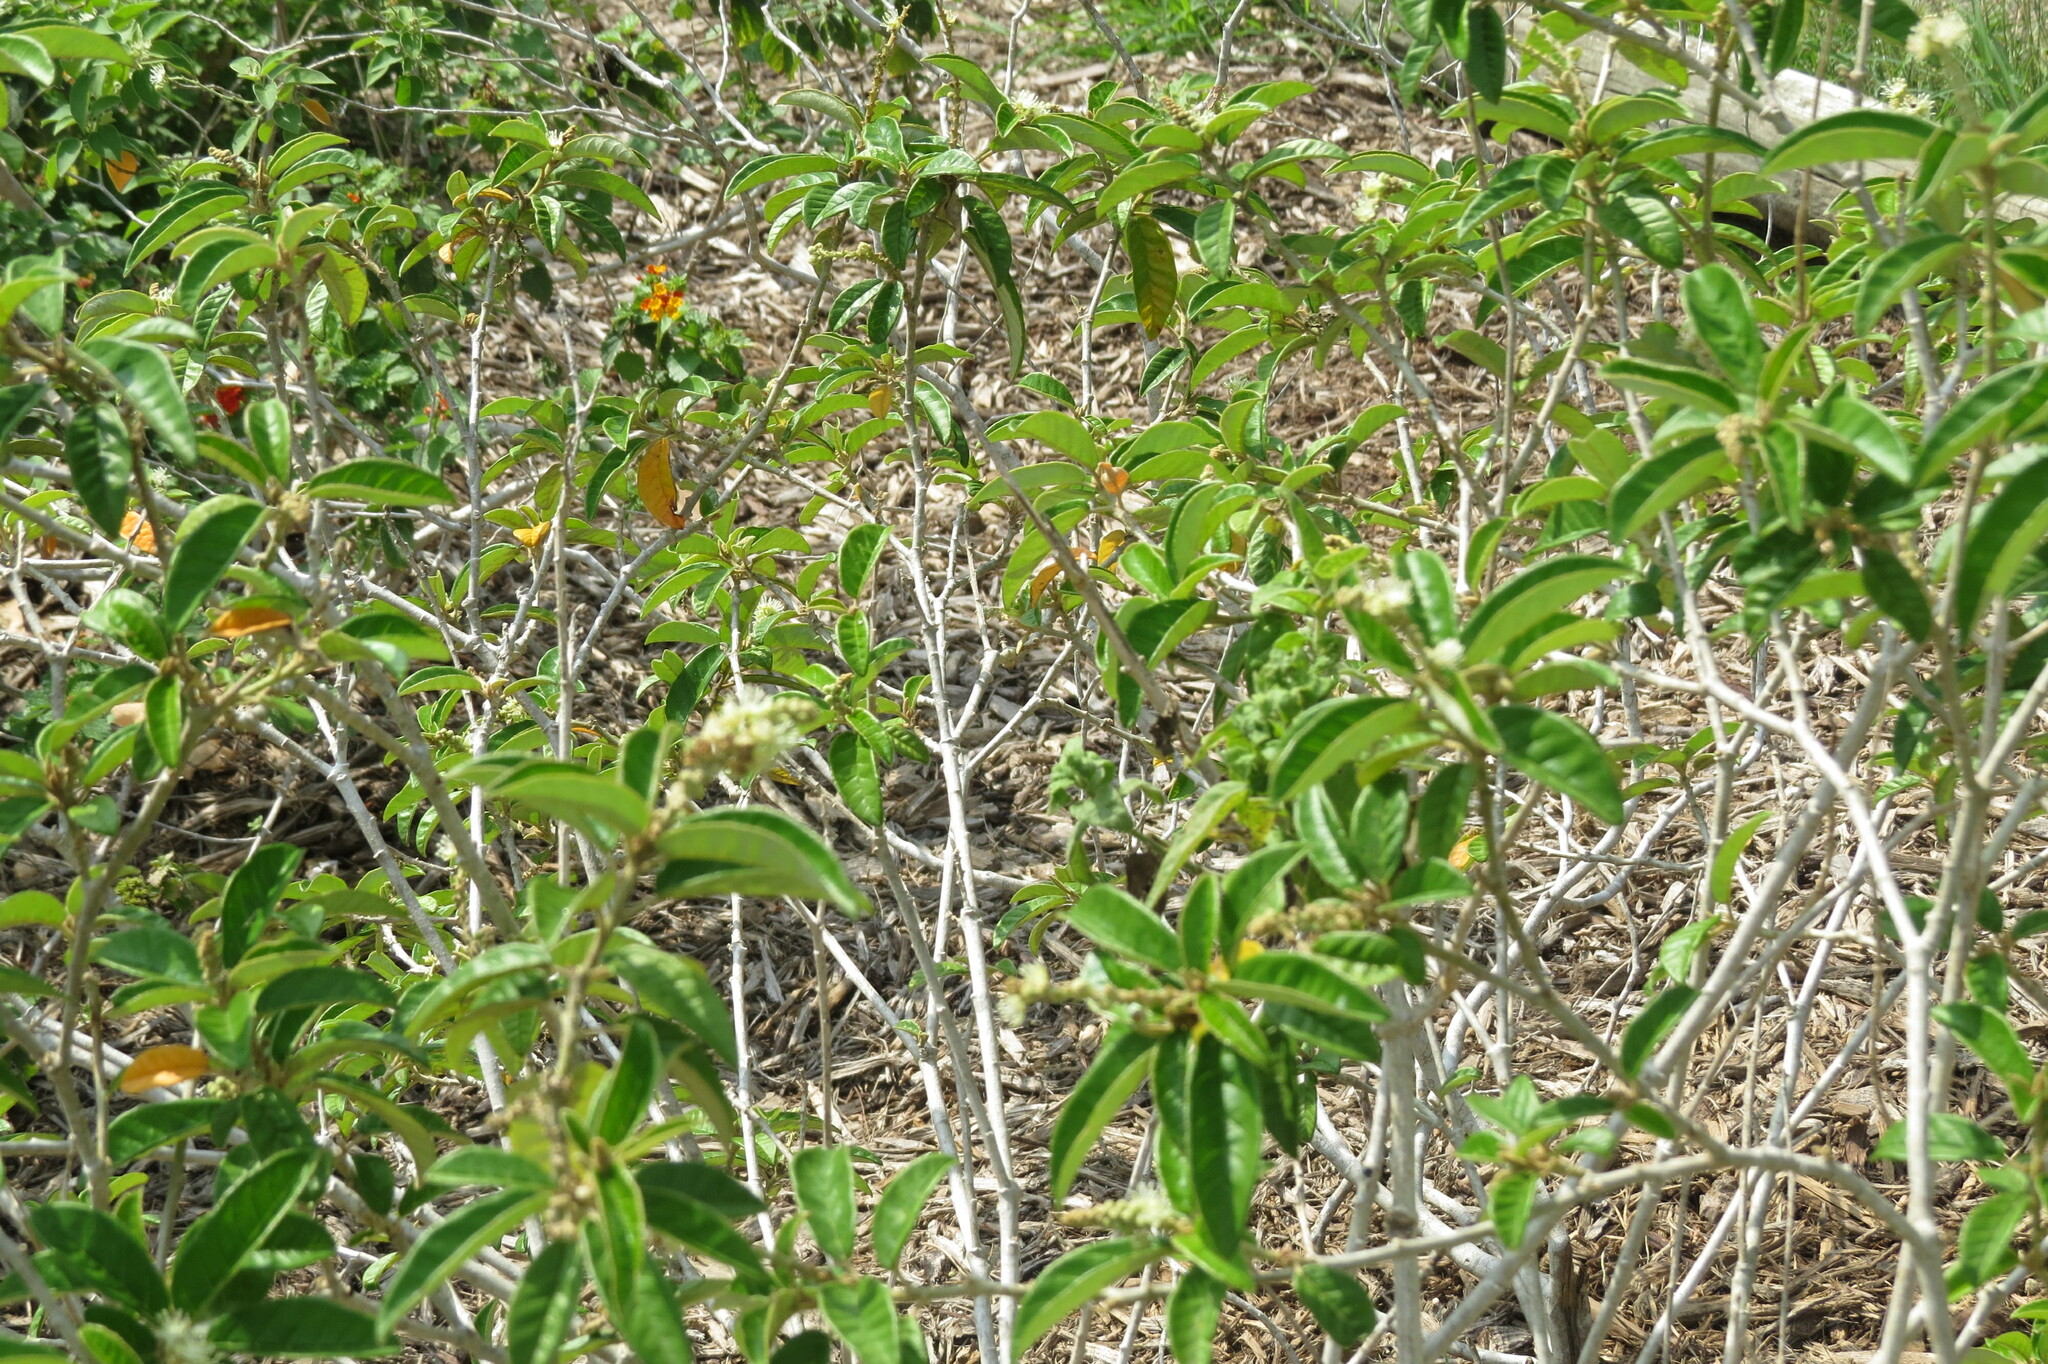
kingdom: Plantae
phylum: Tracheophyta
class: Magnoliopsida
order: Malpighiales
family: Euphorbiaceae
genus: Croton
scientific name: Croton cortesianus
